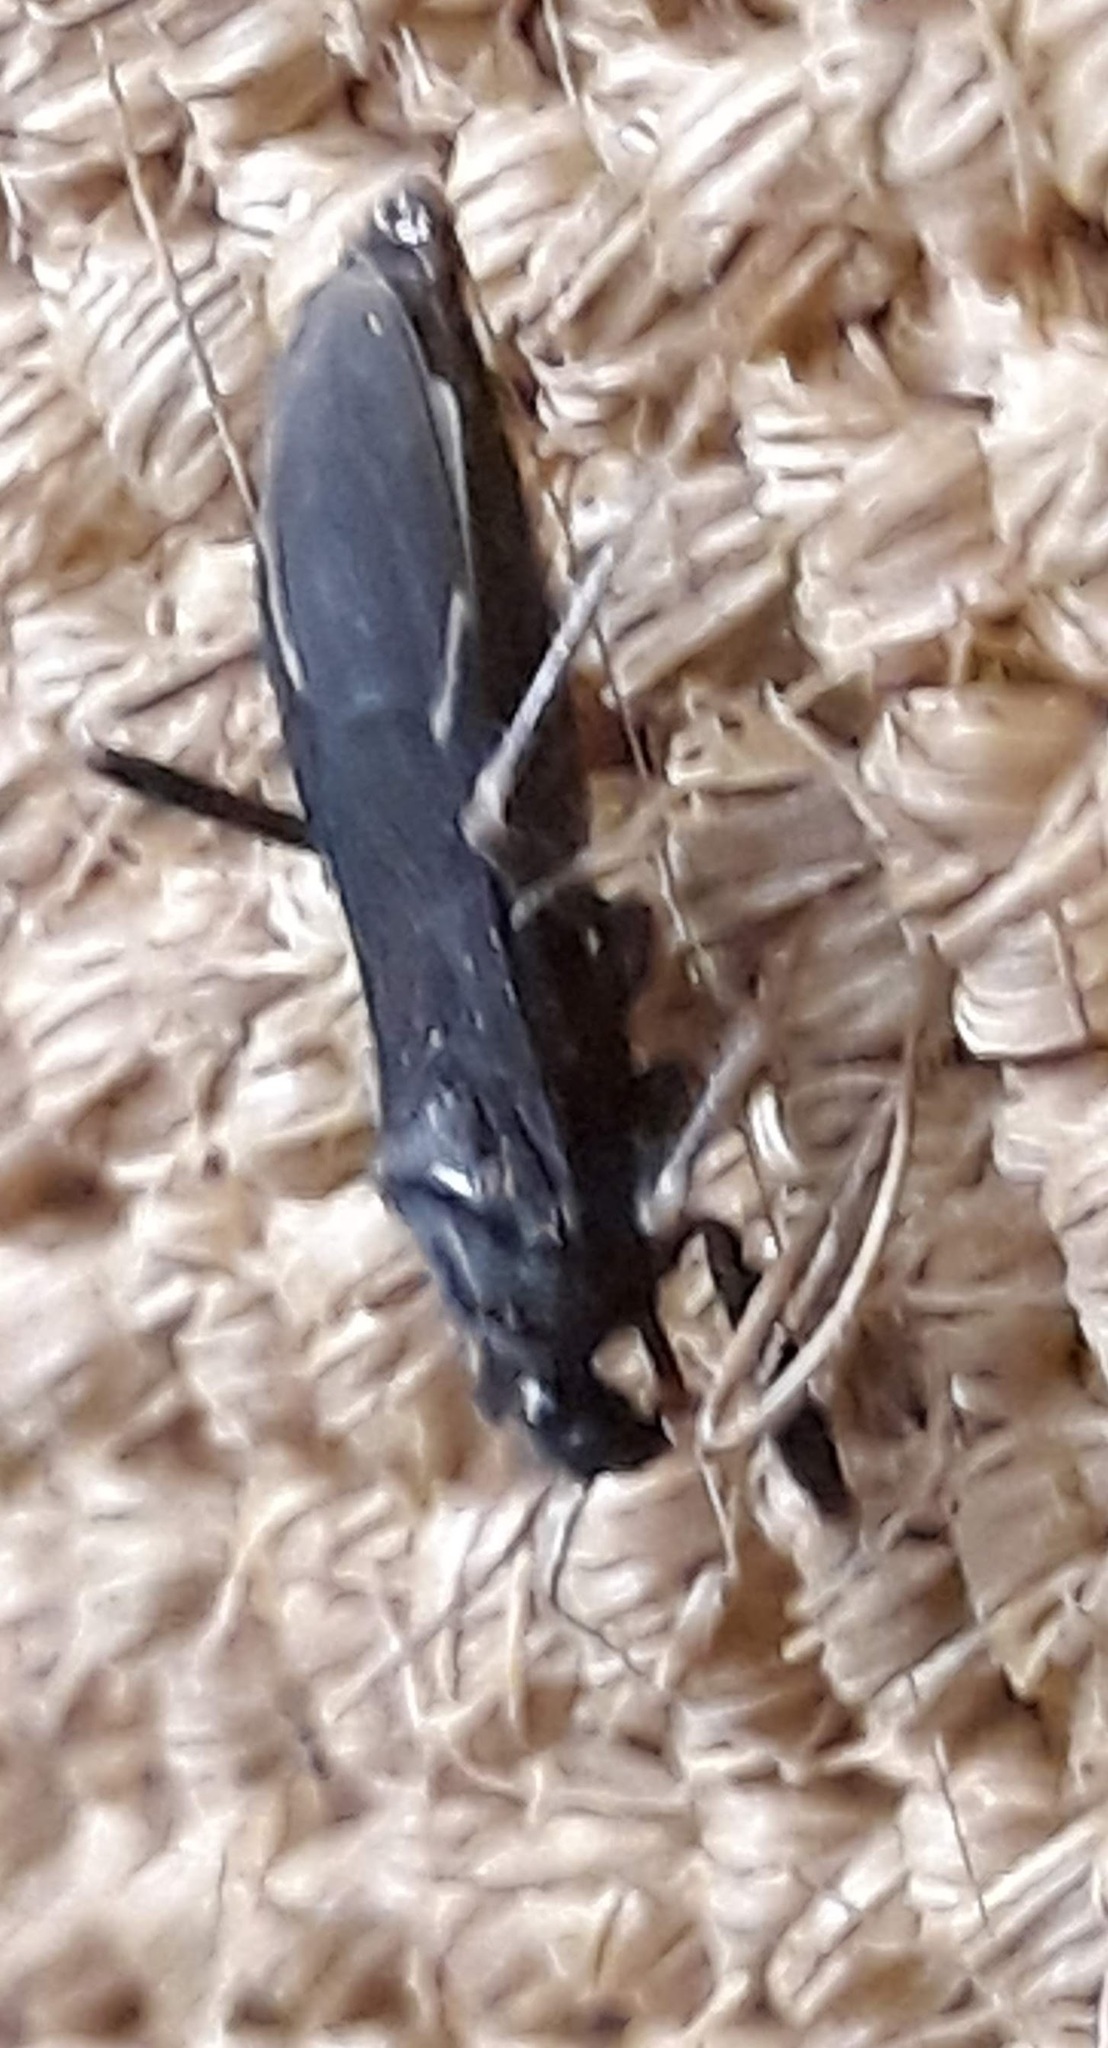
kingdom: Animalia
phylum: Arthropoda
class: Insecta
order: Hemiptera
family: Reduviidae
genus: Reduvius
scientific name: Reduvius personatus
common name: Masked hunter
